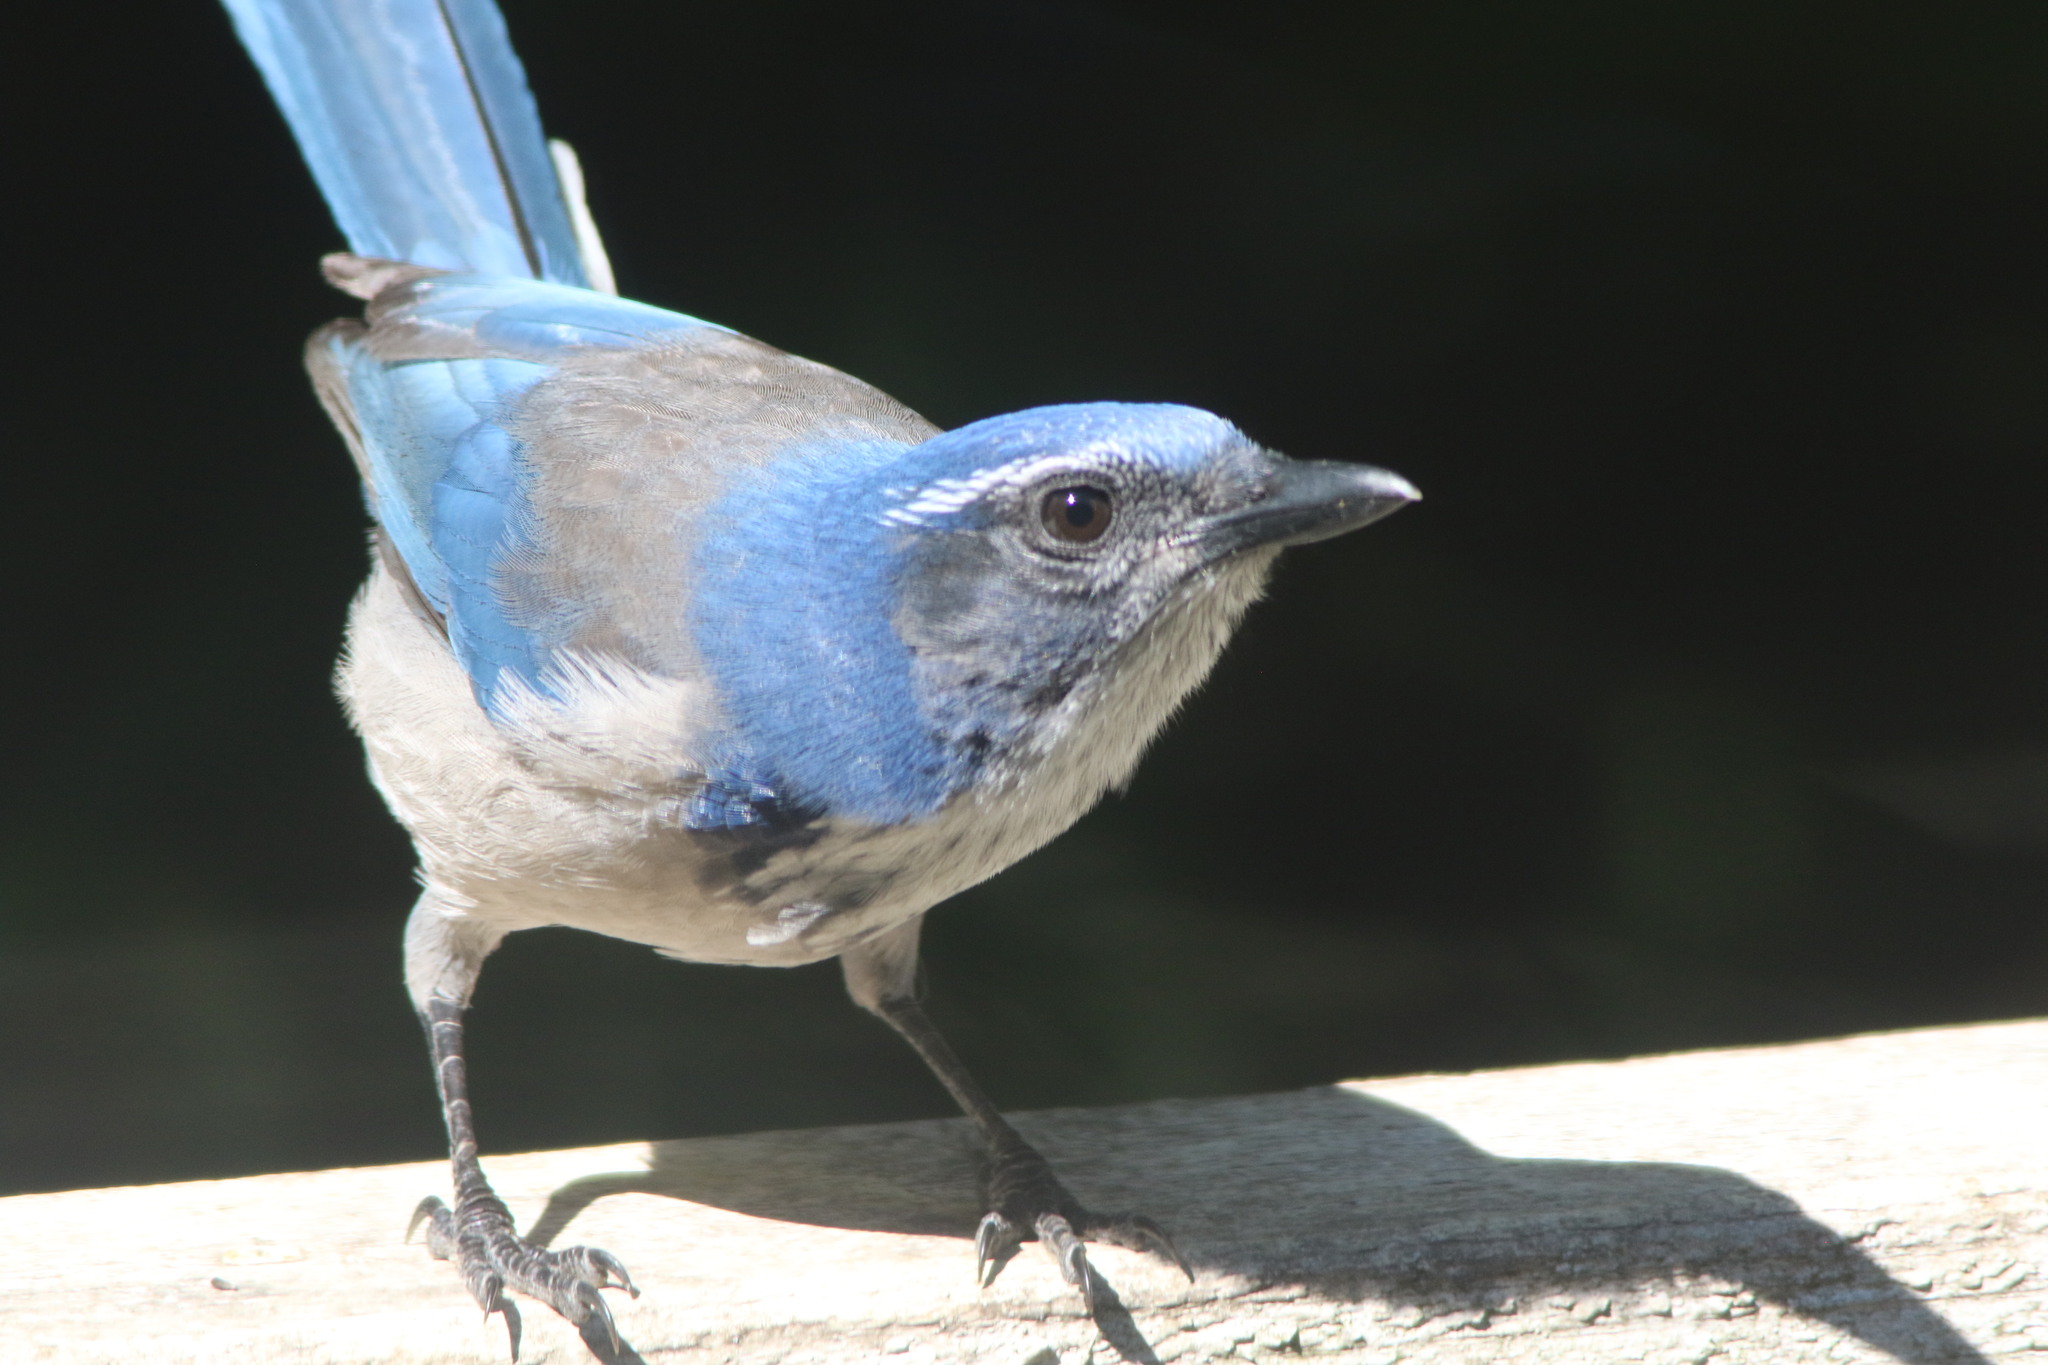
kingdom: Animalia
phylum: Chordata
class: Aves
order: Passeriformes
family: Corvidae
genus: Aphelocoma
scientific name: Aphelocoma californica
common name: California scrub-jay
